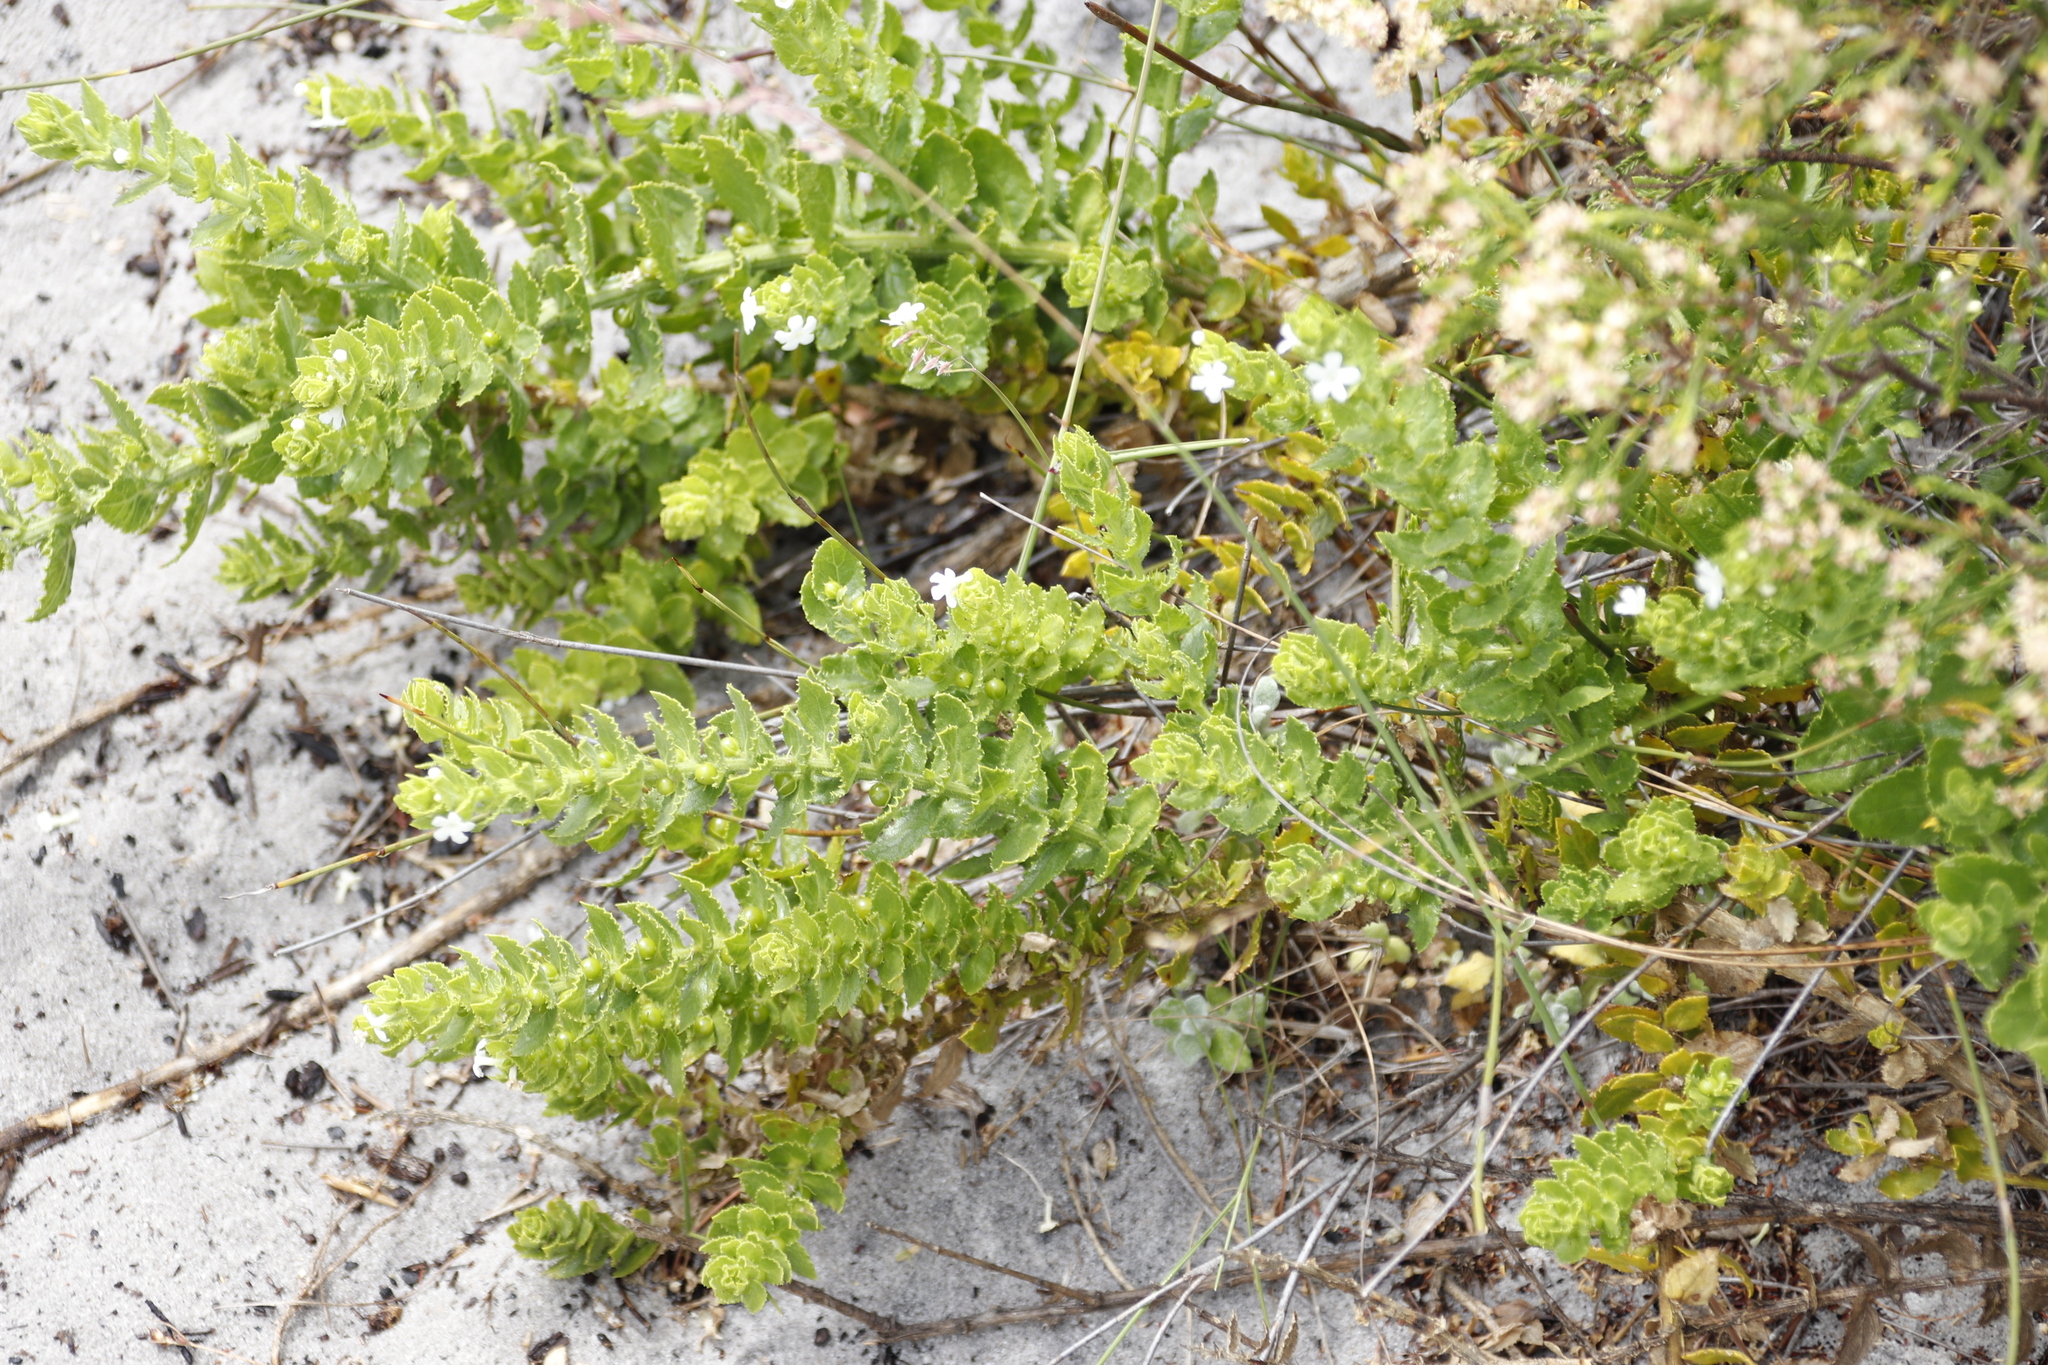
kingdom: Plantae
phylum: Tracheophyta
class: Magnoliopsida
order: Lamiales
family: Scrophulariaceae
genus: Oftia
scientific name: Oftia africana
